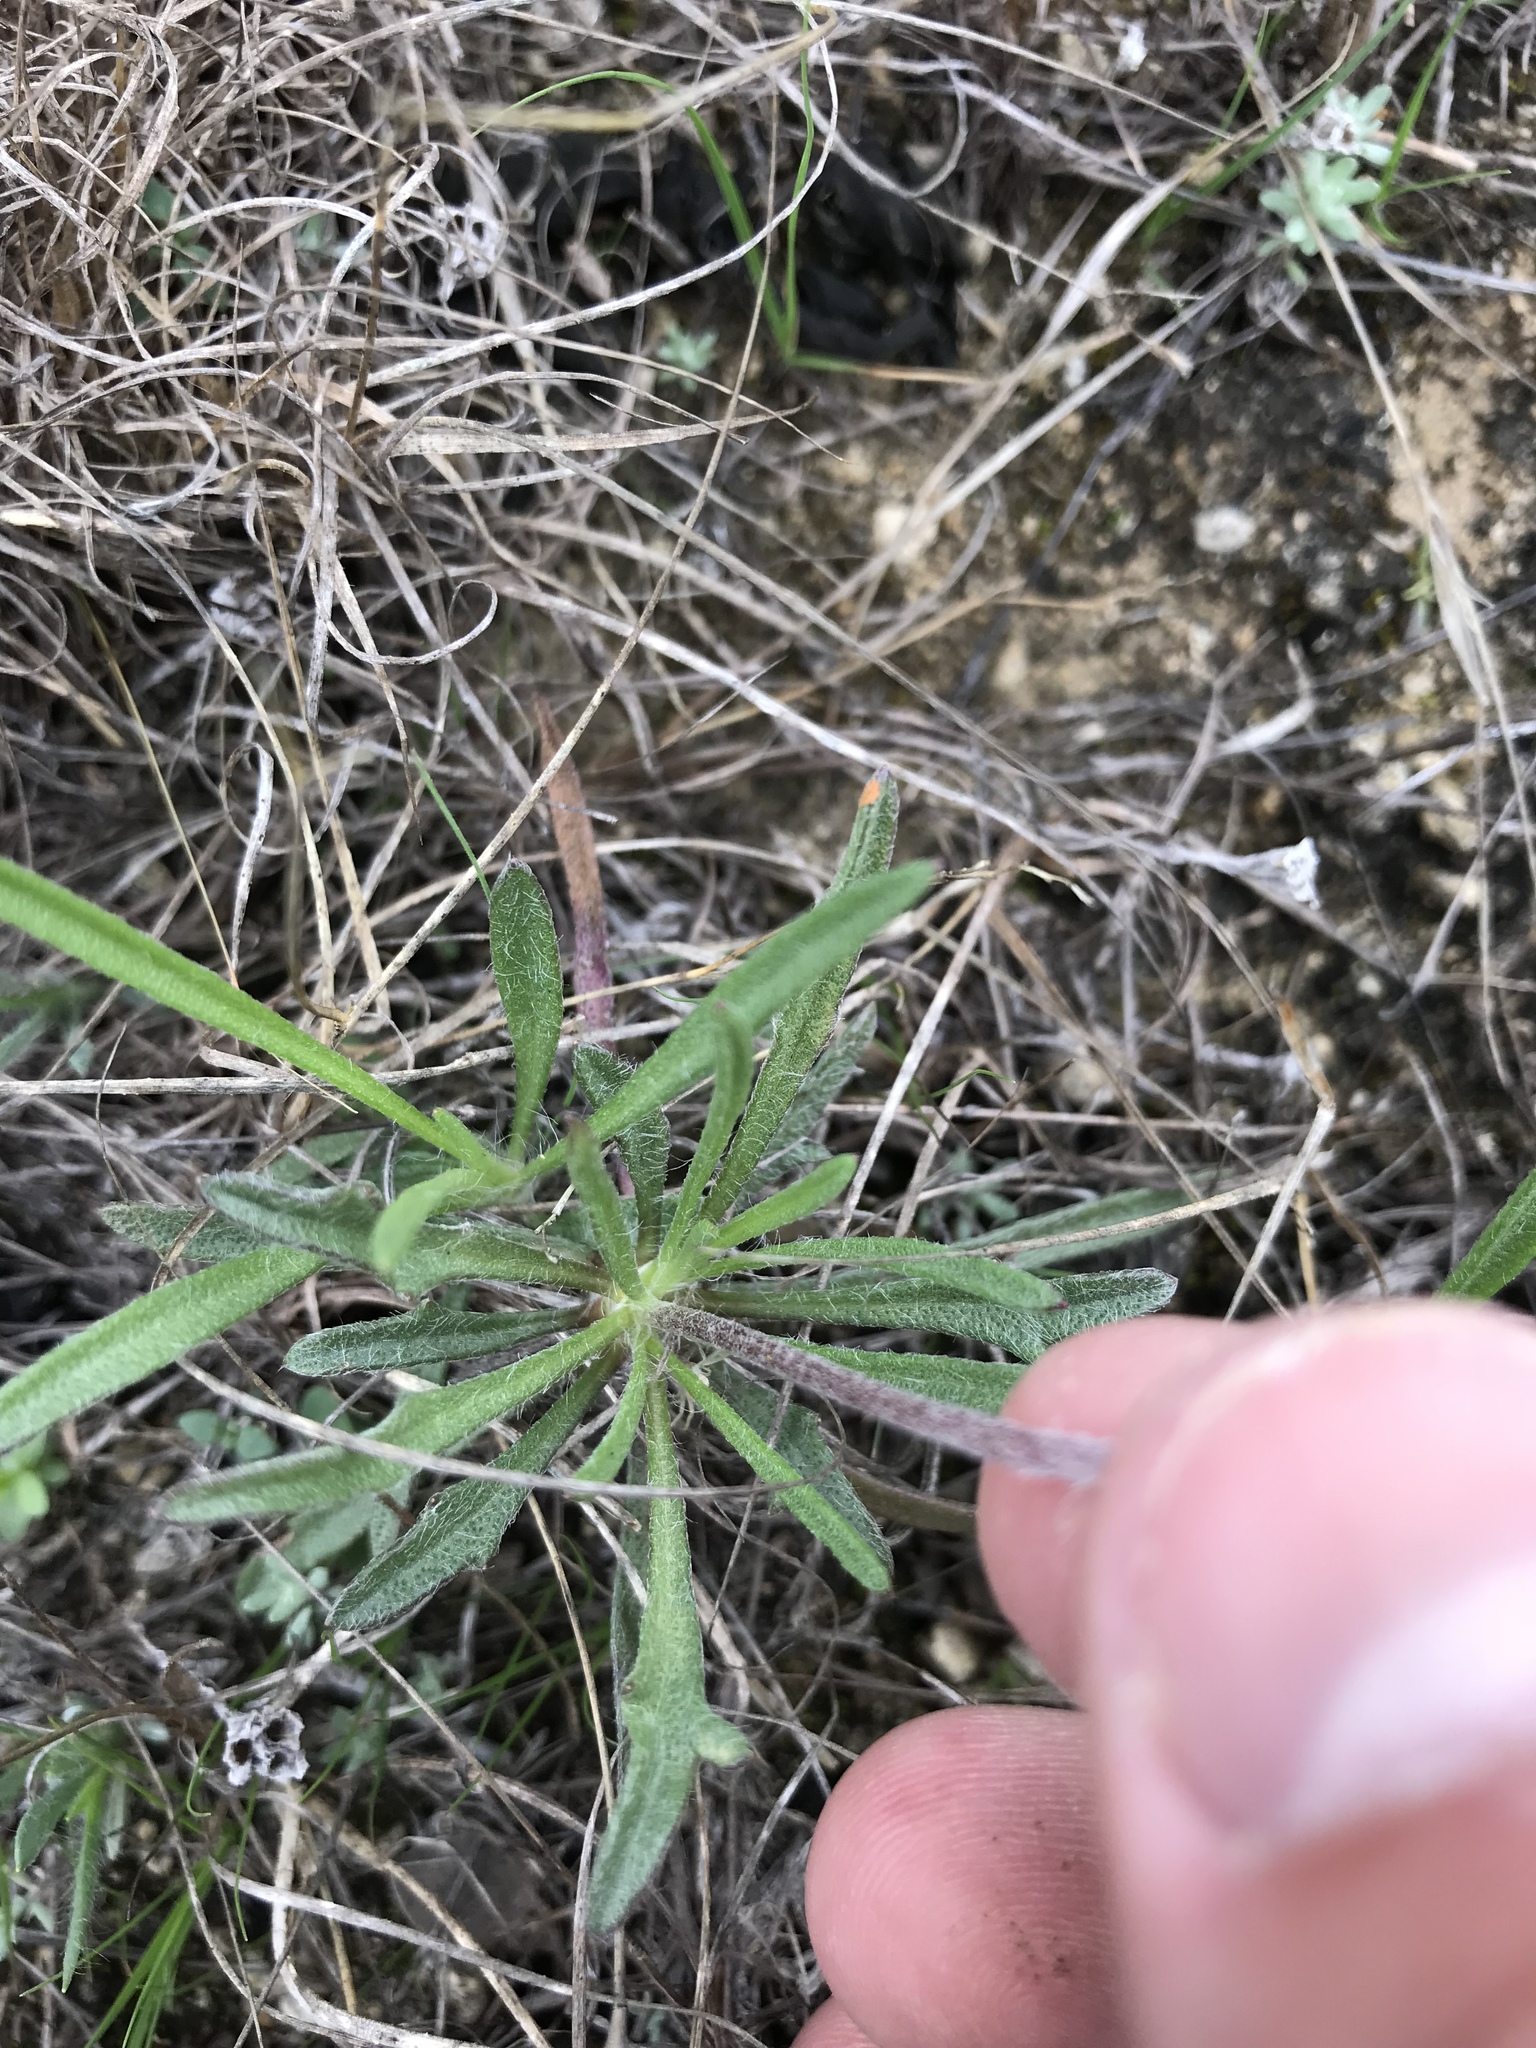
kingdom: Plantae
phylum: Tracheophyta
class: Magnoliopsida
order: Asterales
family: Asteraceae
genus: Tetraneuris
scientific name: Tetraneuris scaposa
